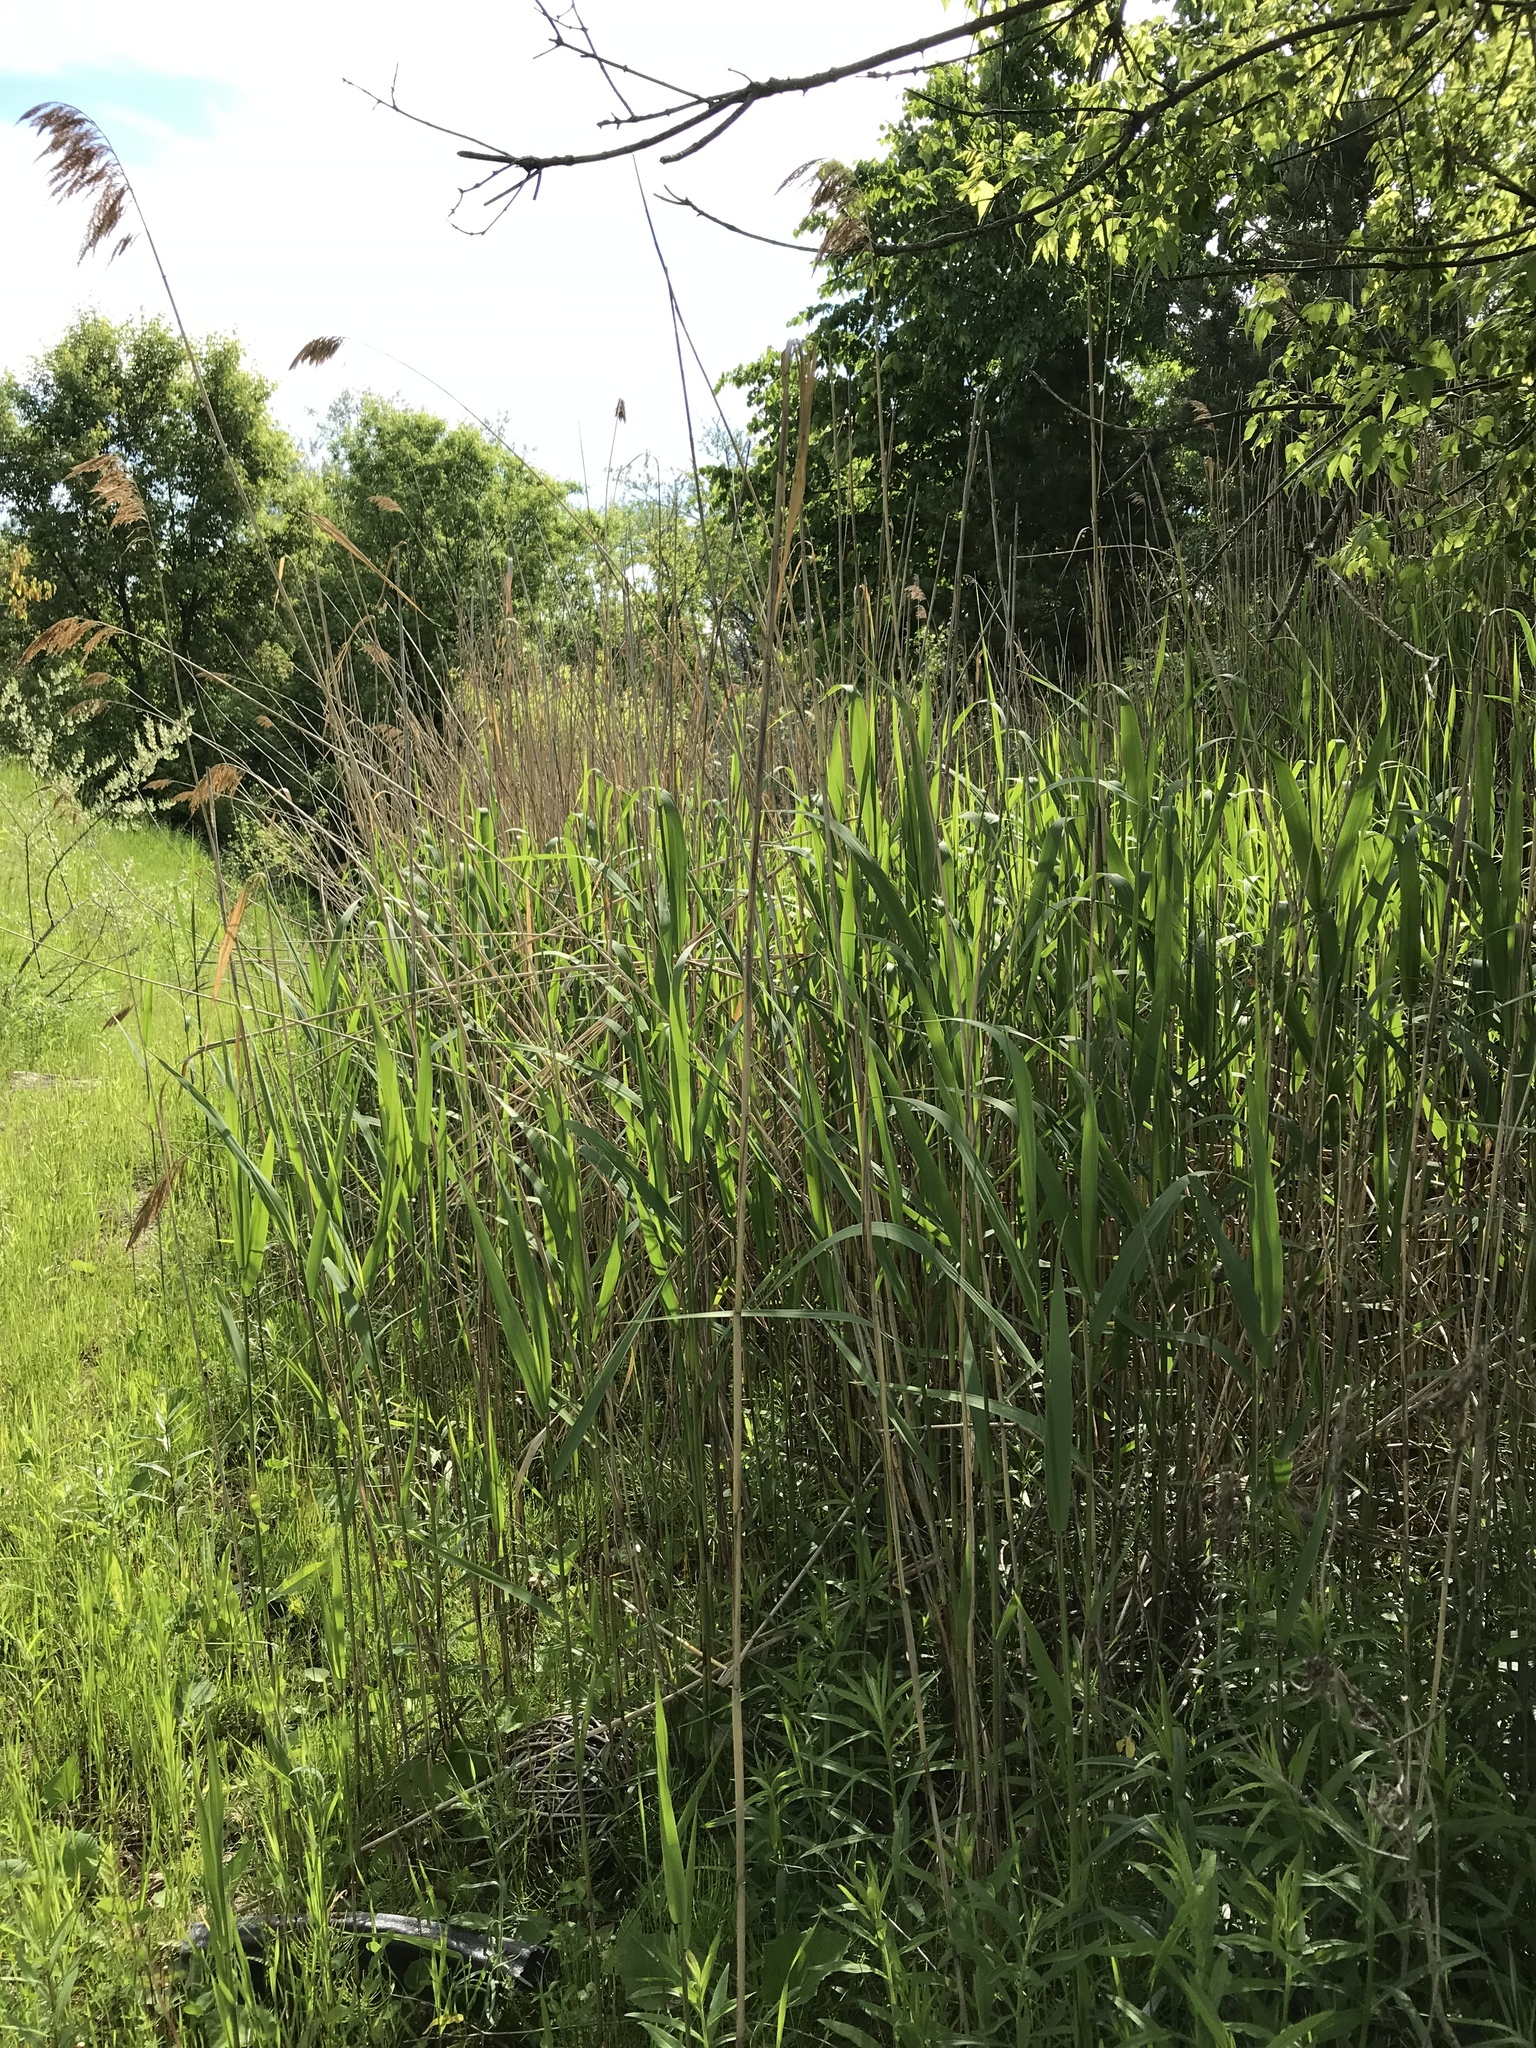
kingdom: Plantae
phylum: Tracheophyta
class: Liliopsida
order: Poales
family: Poaceae
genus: Phragmites
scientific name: Phragmites australis
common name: Common reed
